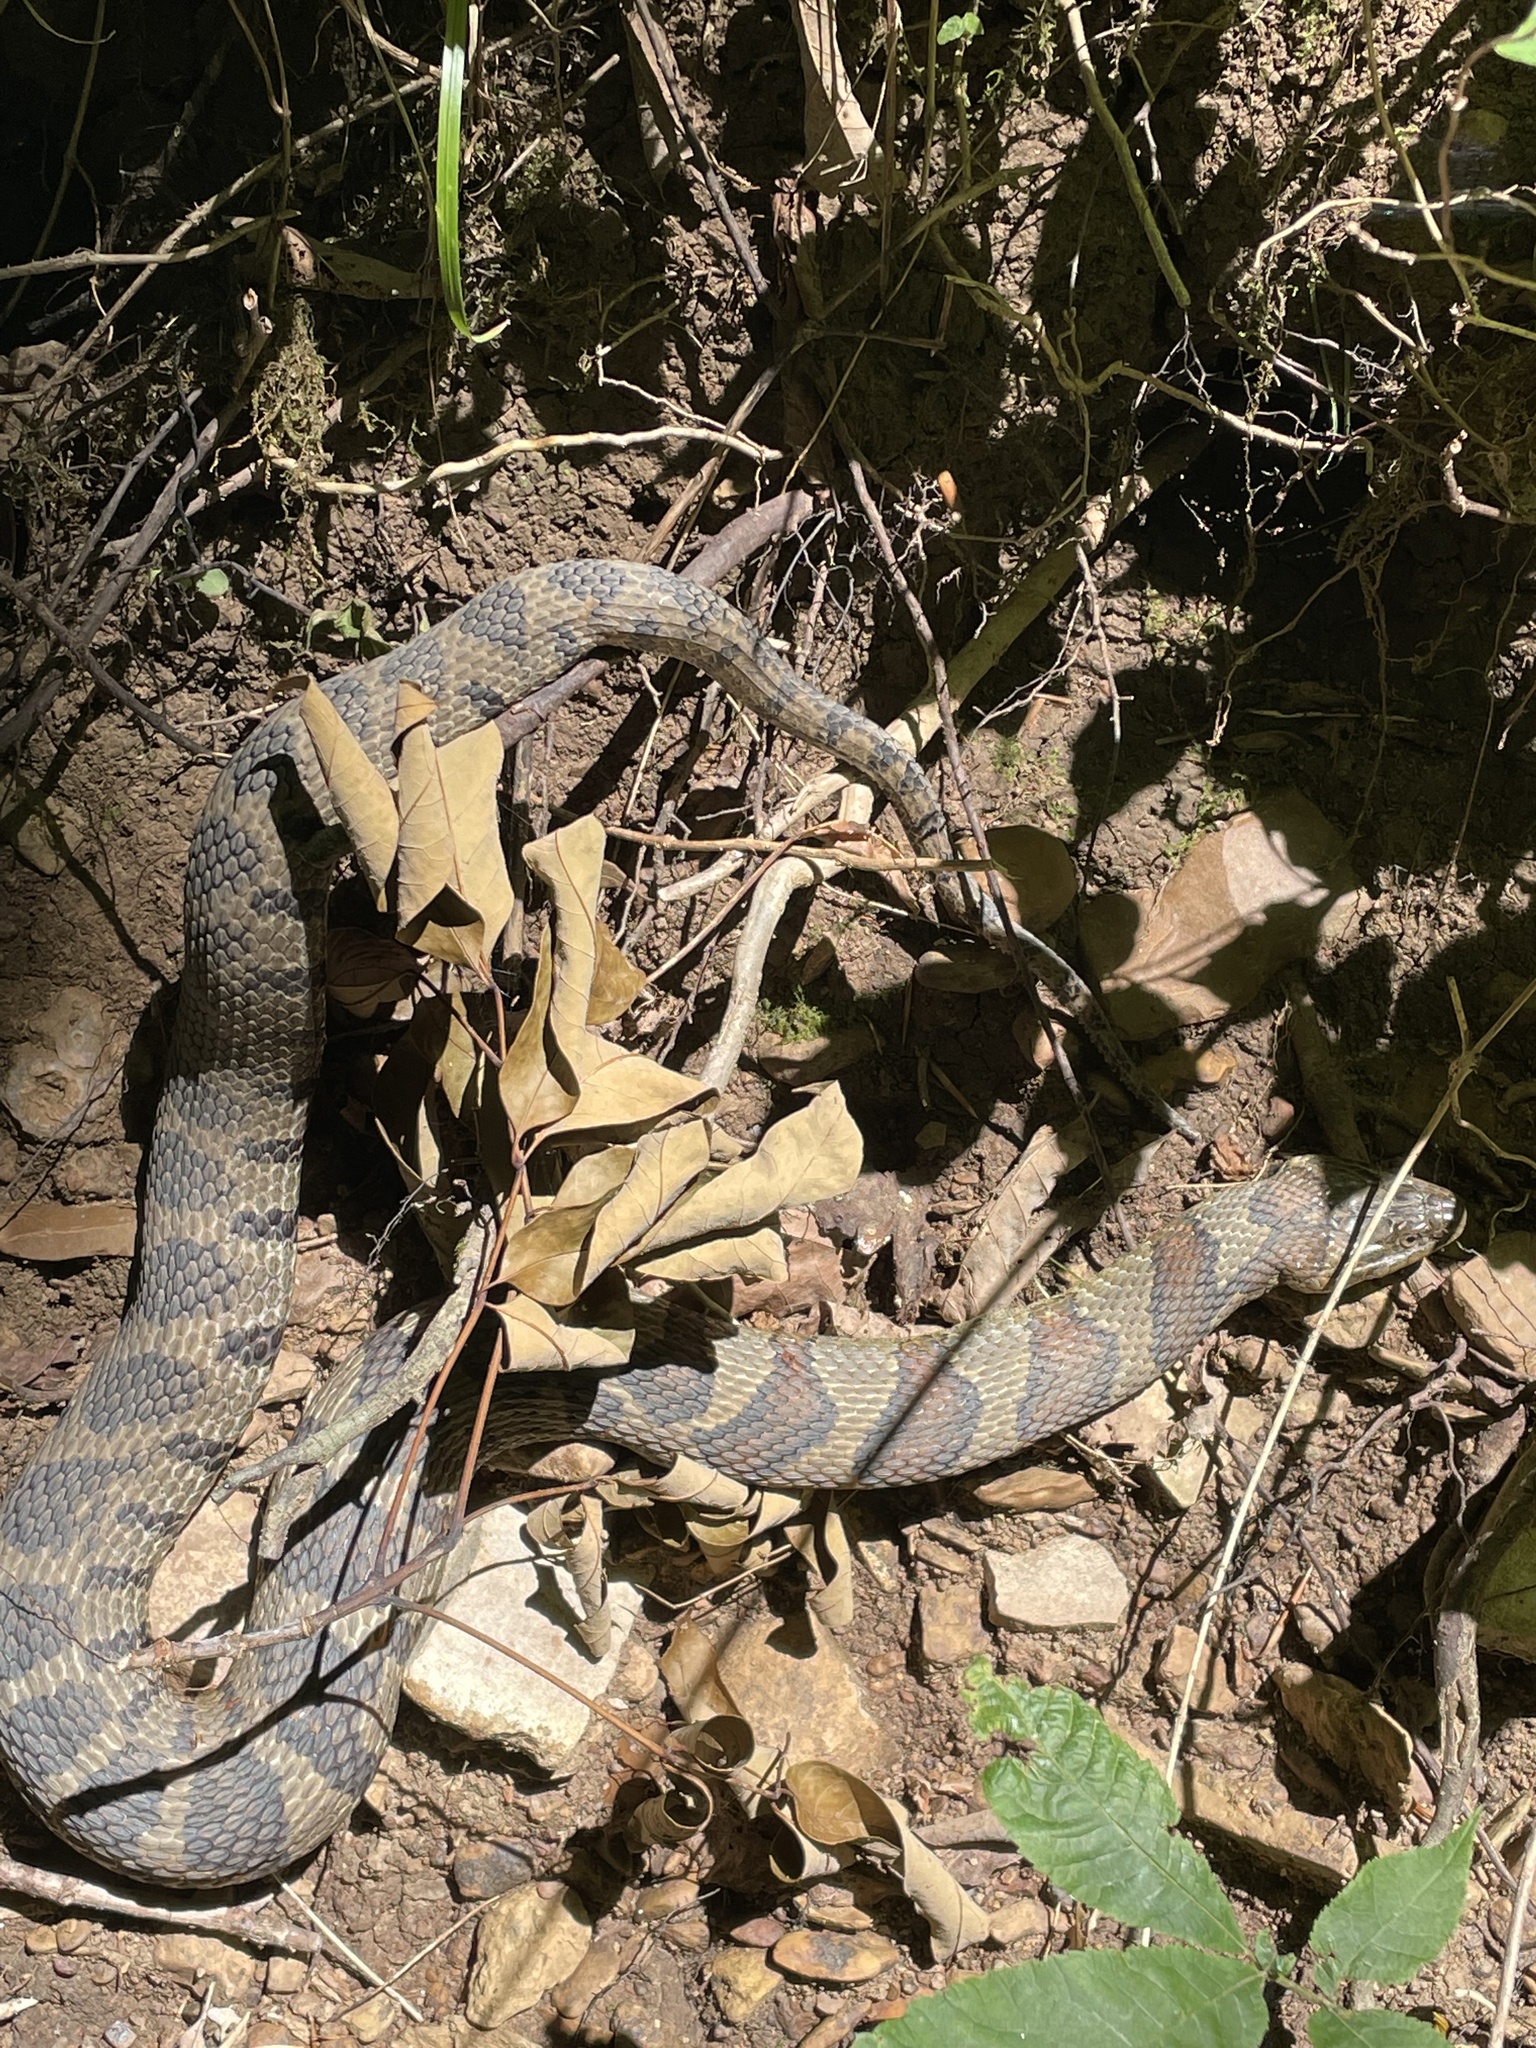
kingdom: Animalia
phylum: Chordata
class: Squamata
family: Colubridae
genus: Nerodia
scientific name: Nerodia sipedon
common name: Northern water snake
